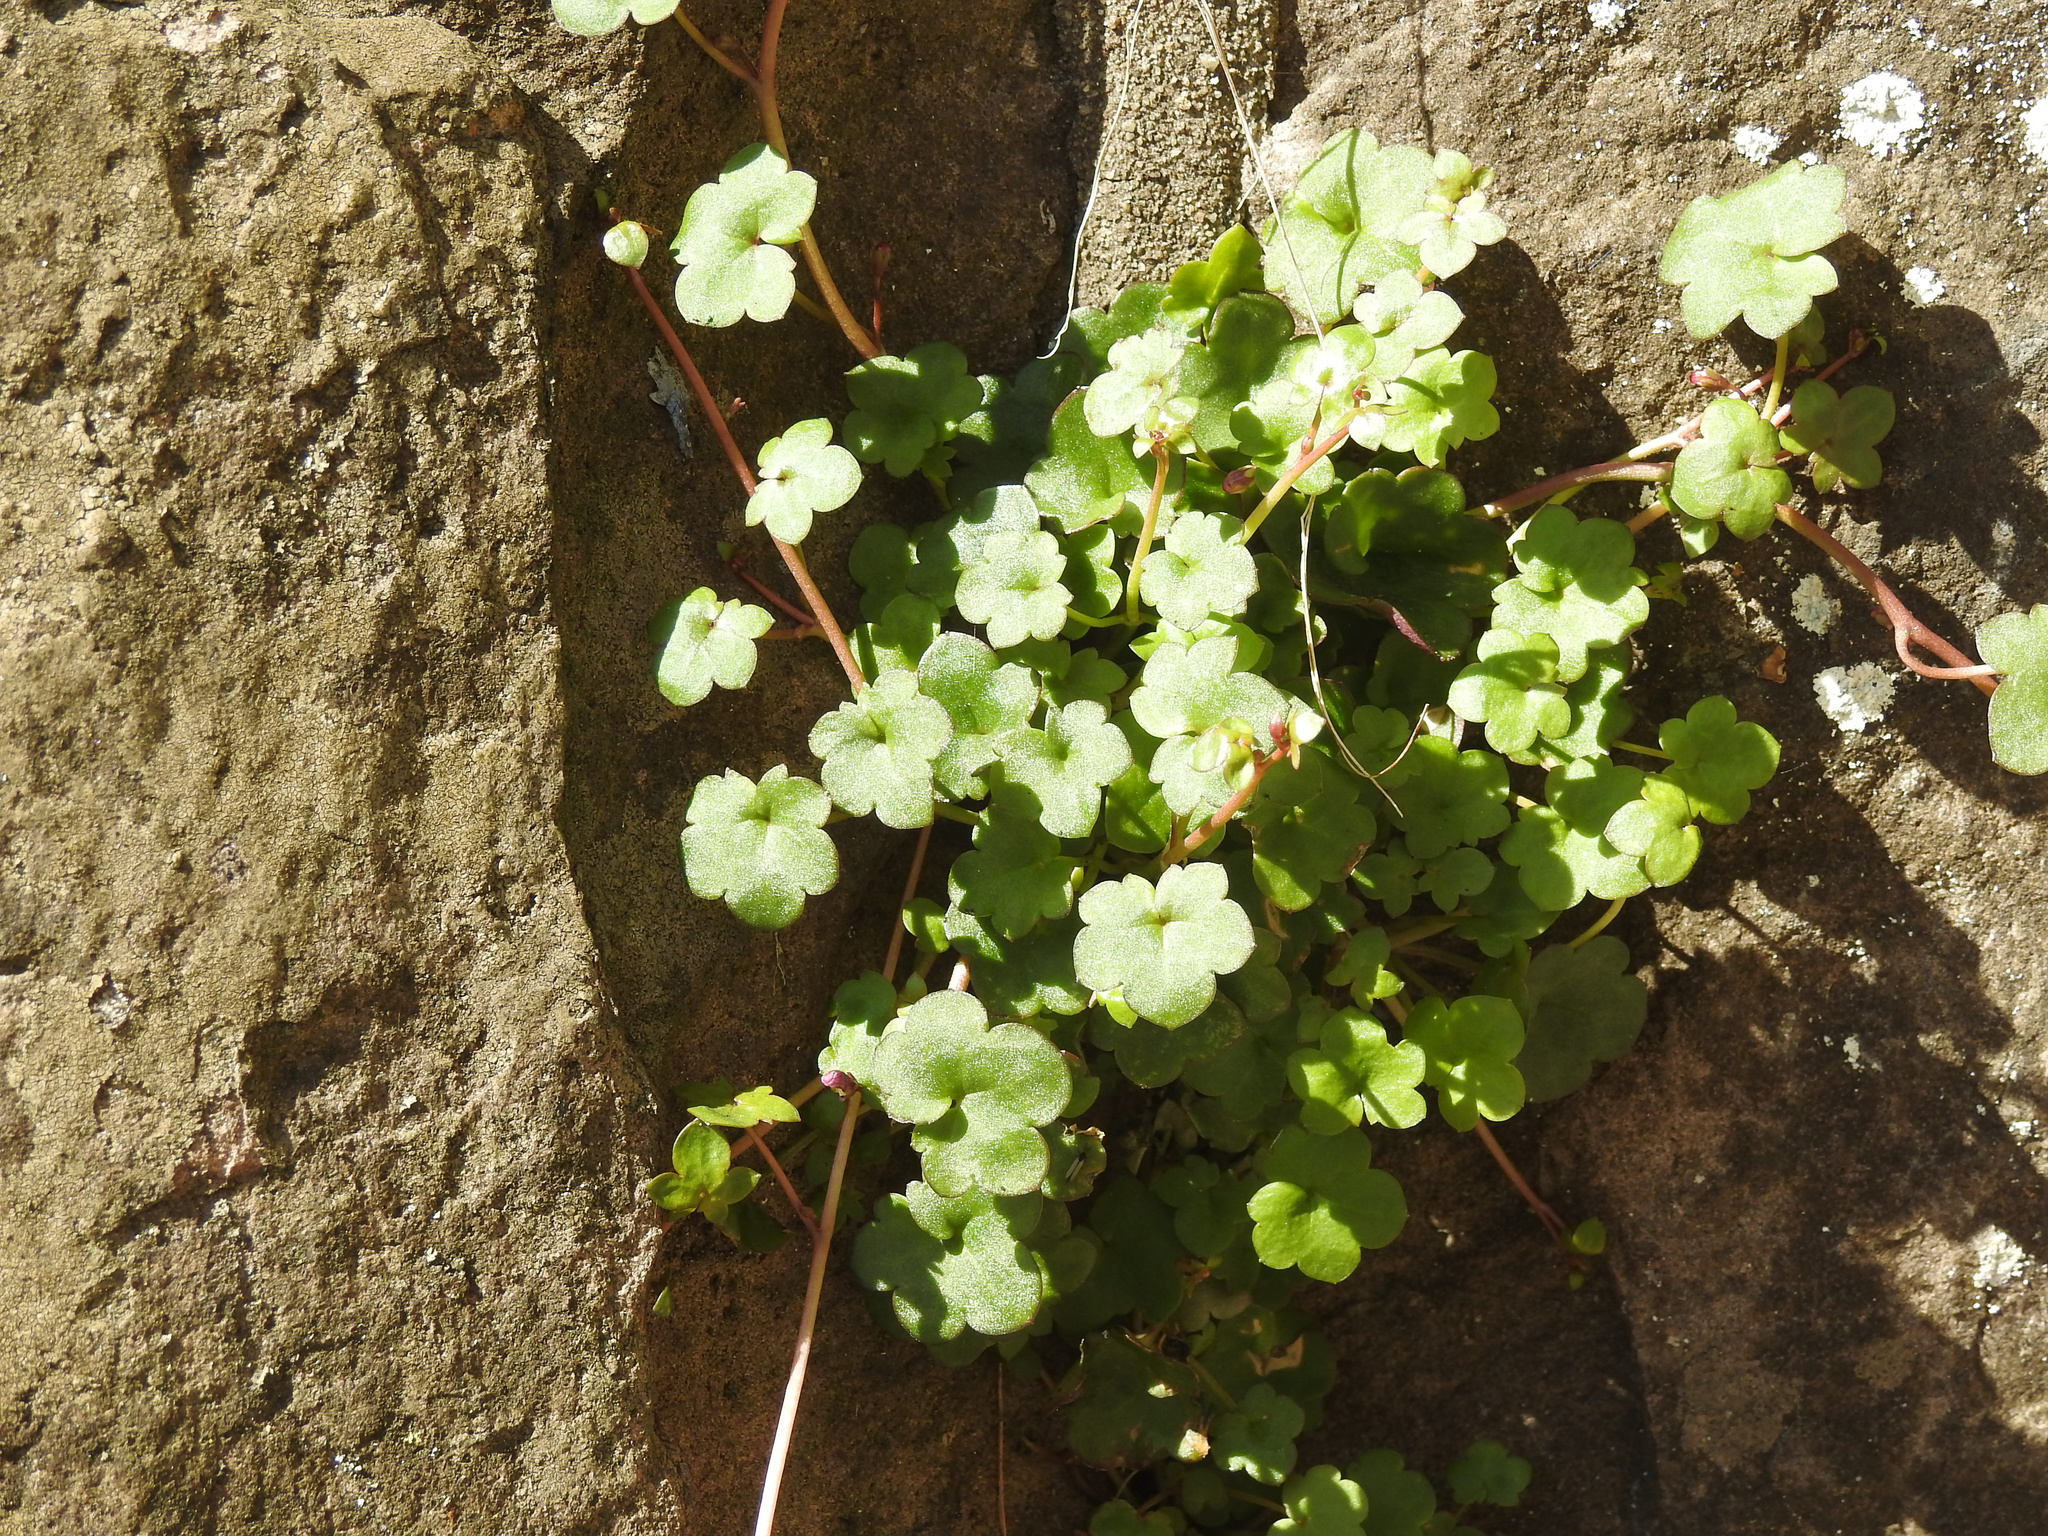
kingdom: Plantae
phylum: Tracheophyta
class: Magnoliopsida
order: Lamiales
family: Plantaginaceae
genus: Cymbalaria
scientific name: Cymbalaria muralis
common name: Ivy-leaved toadflax
